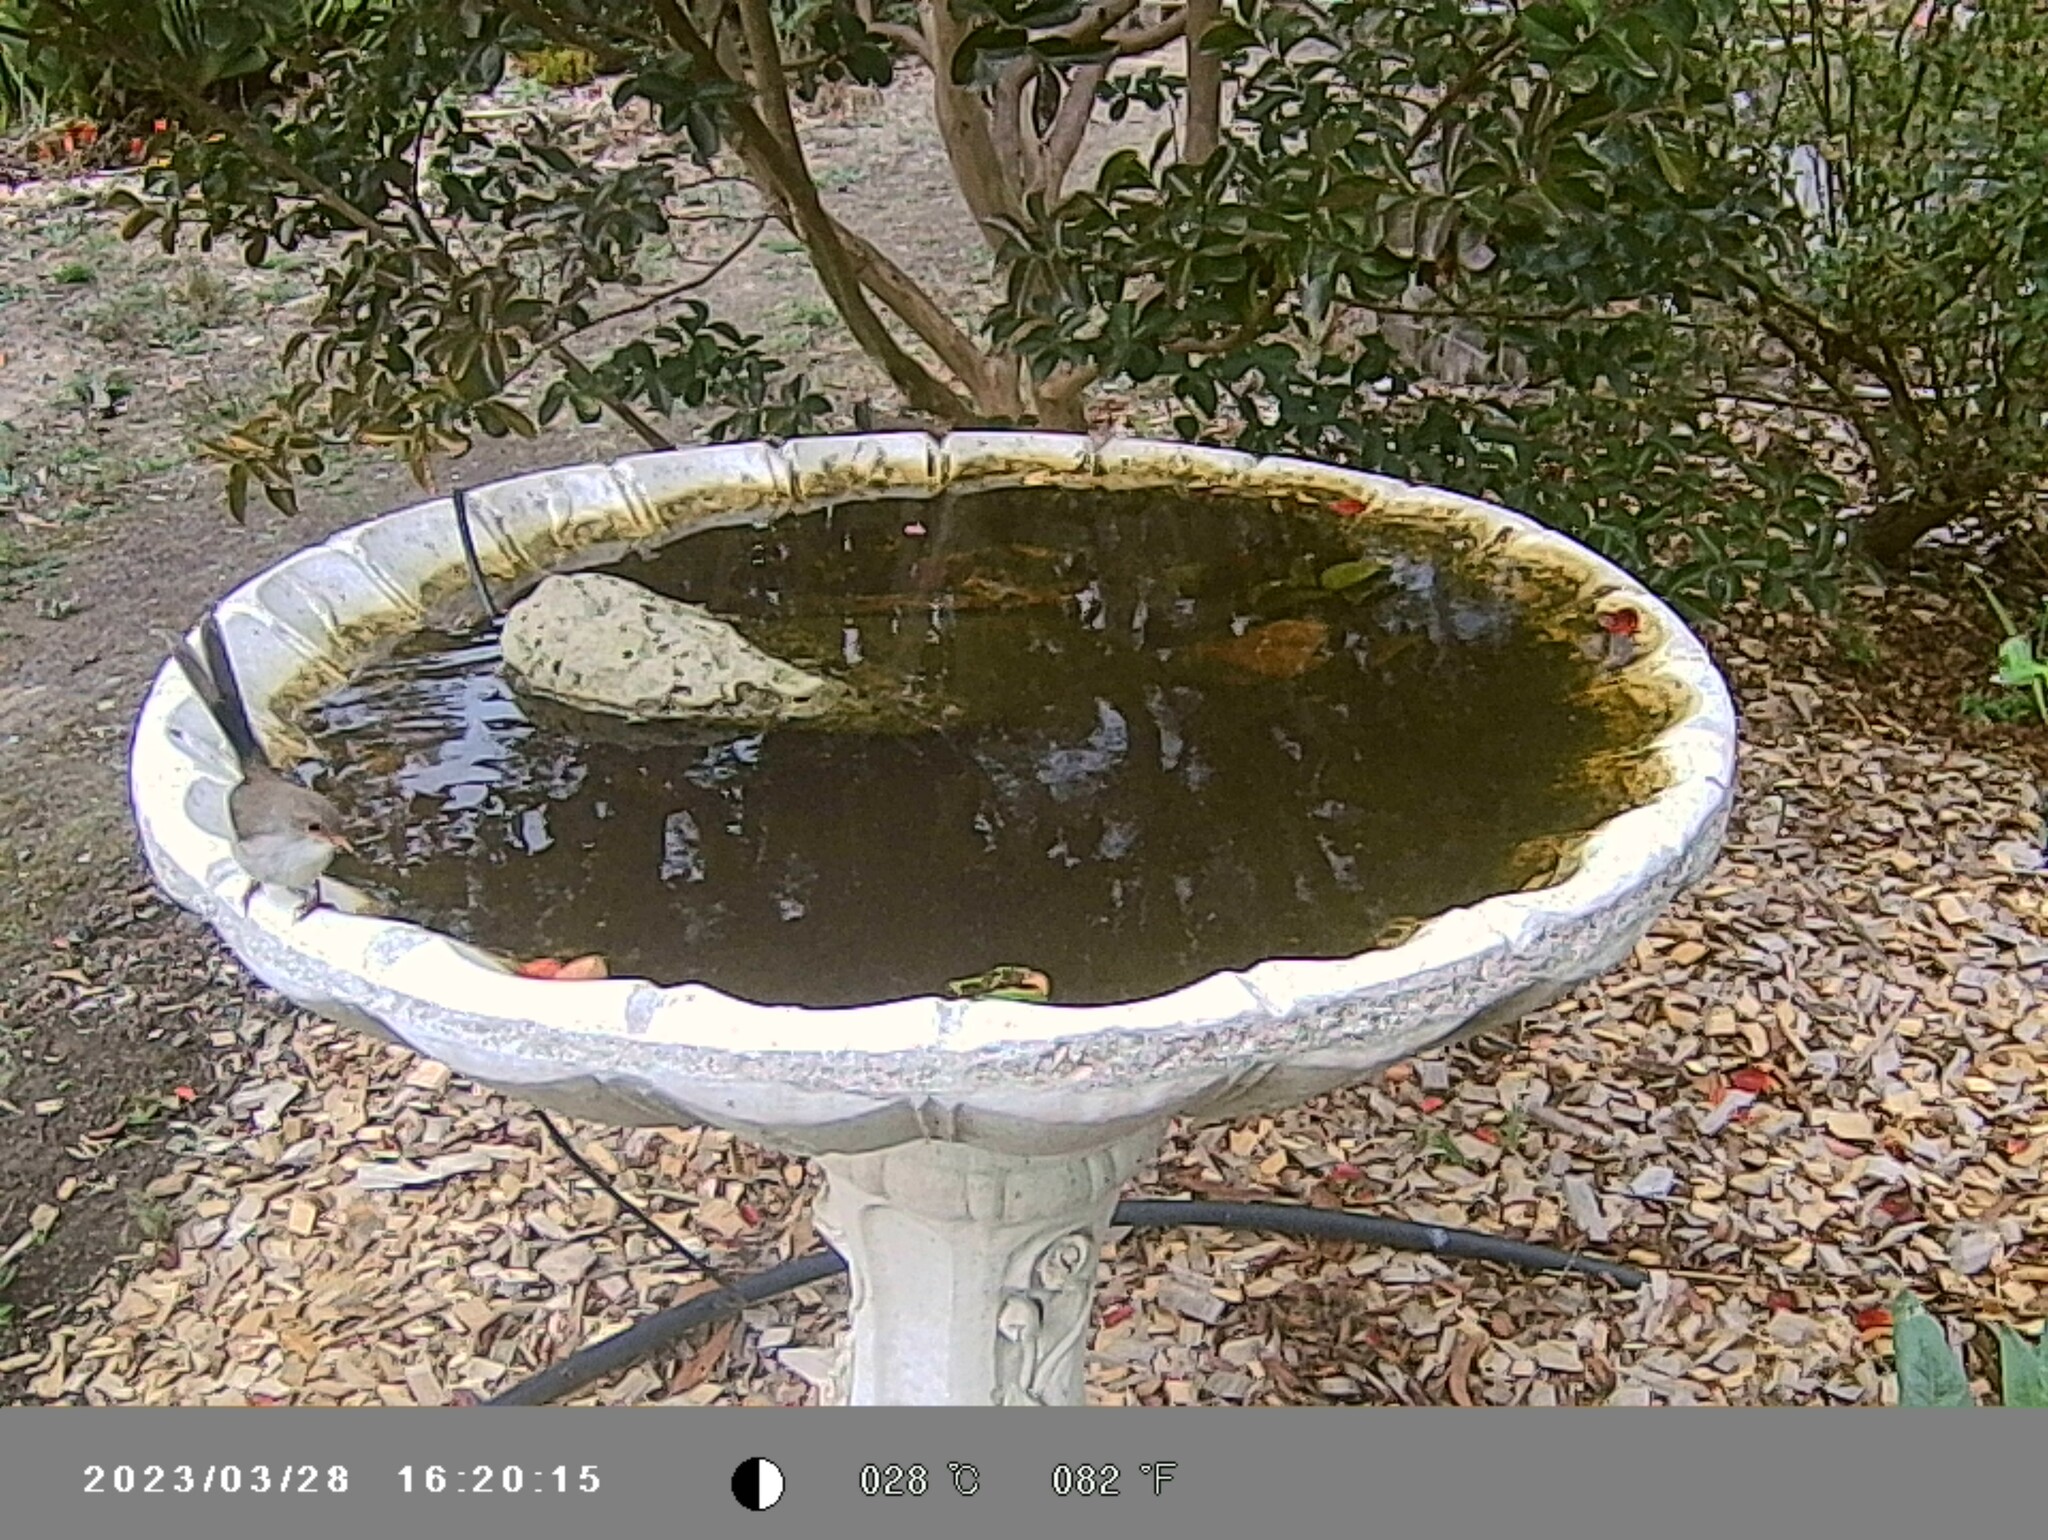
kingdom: Animalia
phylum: Chordata
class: Aves
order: Passeriformes
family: Maluridae
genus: Malurus
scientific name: Malurus cyaneus
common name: Superb fairywren
